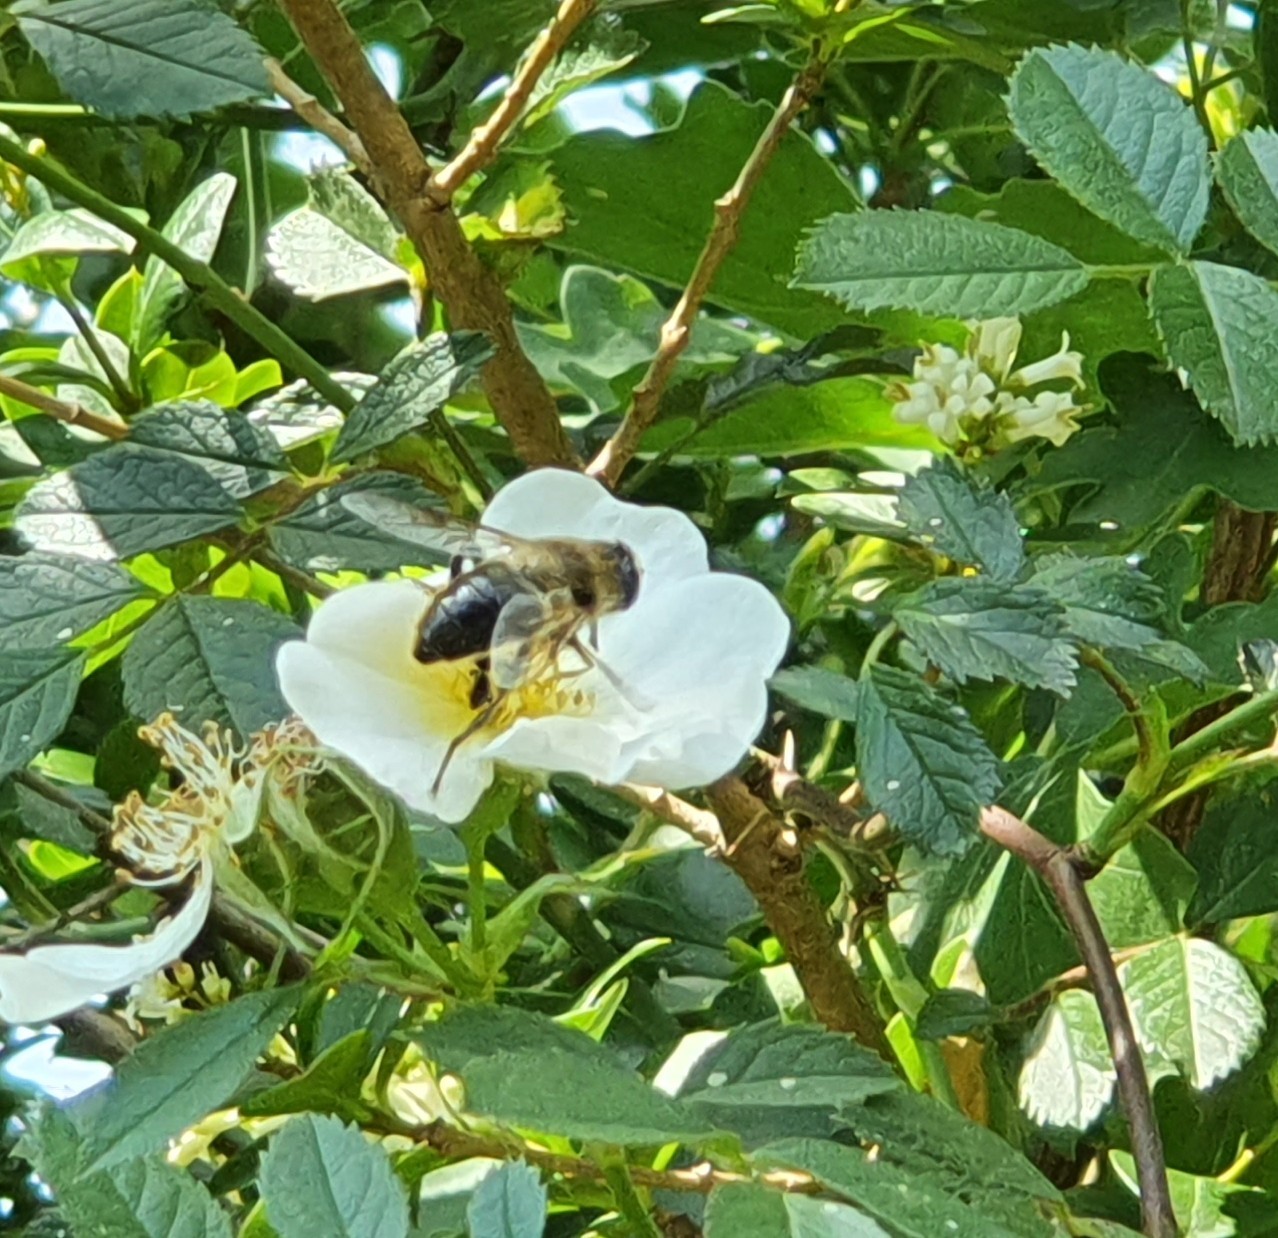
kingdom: Animalia
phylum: Arthropoda
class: Insecta
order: Diptera
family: Syrphidae
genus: Eristalis
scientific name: Eristalis tenax
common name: Drone fly
